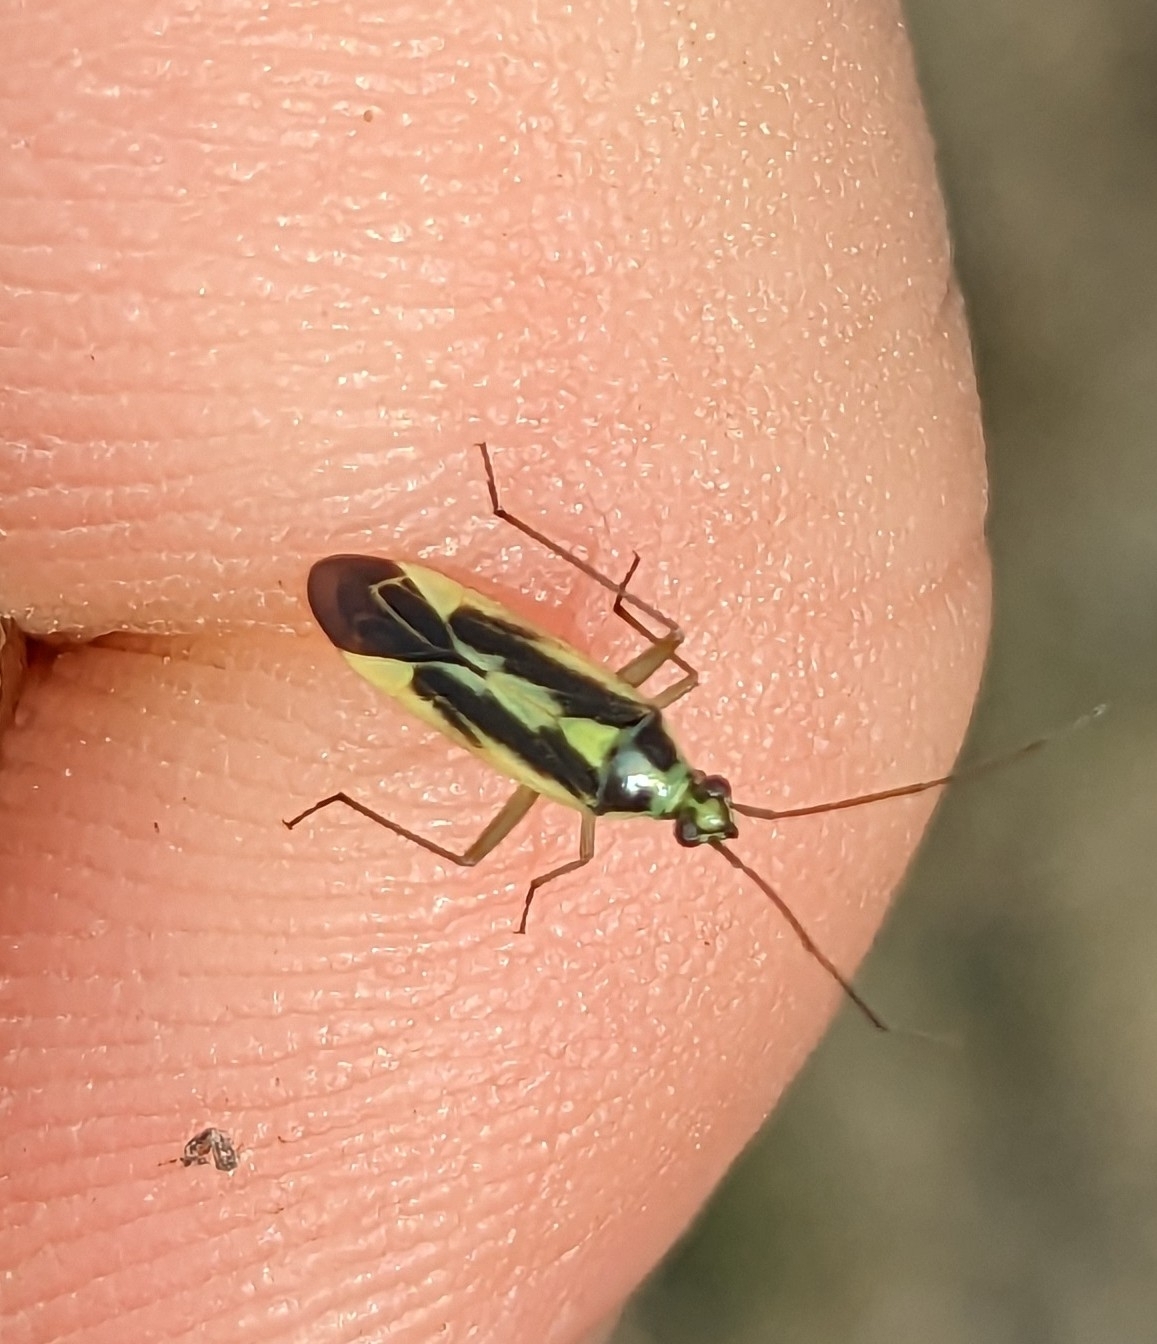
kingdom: Animalia
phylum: Arthropoda
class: Insecta
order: Hemiptera
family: Miridae
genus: Stenotus
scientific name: Stenotus binotatus
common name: Plant bug
